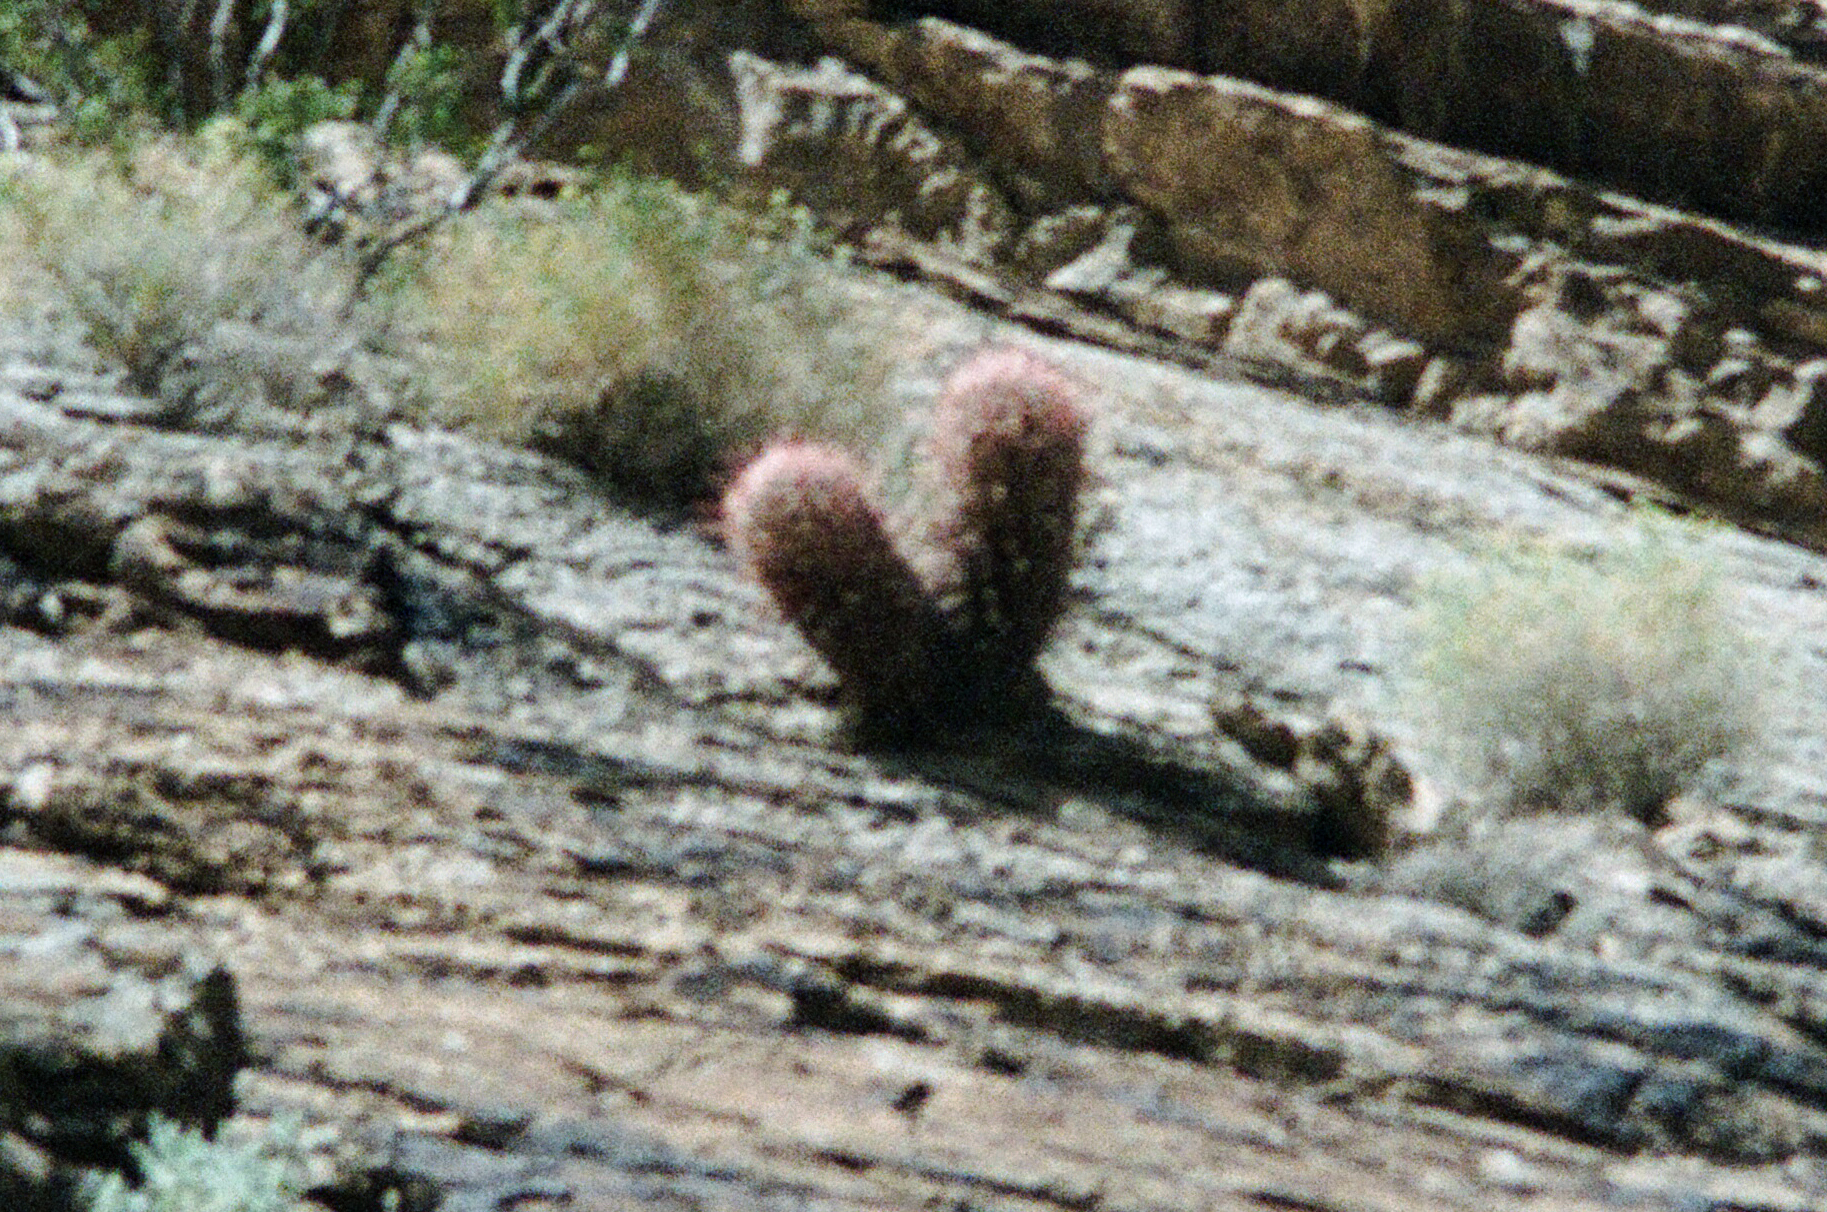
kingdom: Plantae
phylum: Tracheophyta
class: Magnoliopsida
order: Caryophyllales
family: Cactaceae
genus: Echinocactus
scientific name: Echinocactus polycephalus
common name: Cottontop cactus
